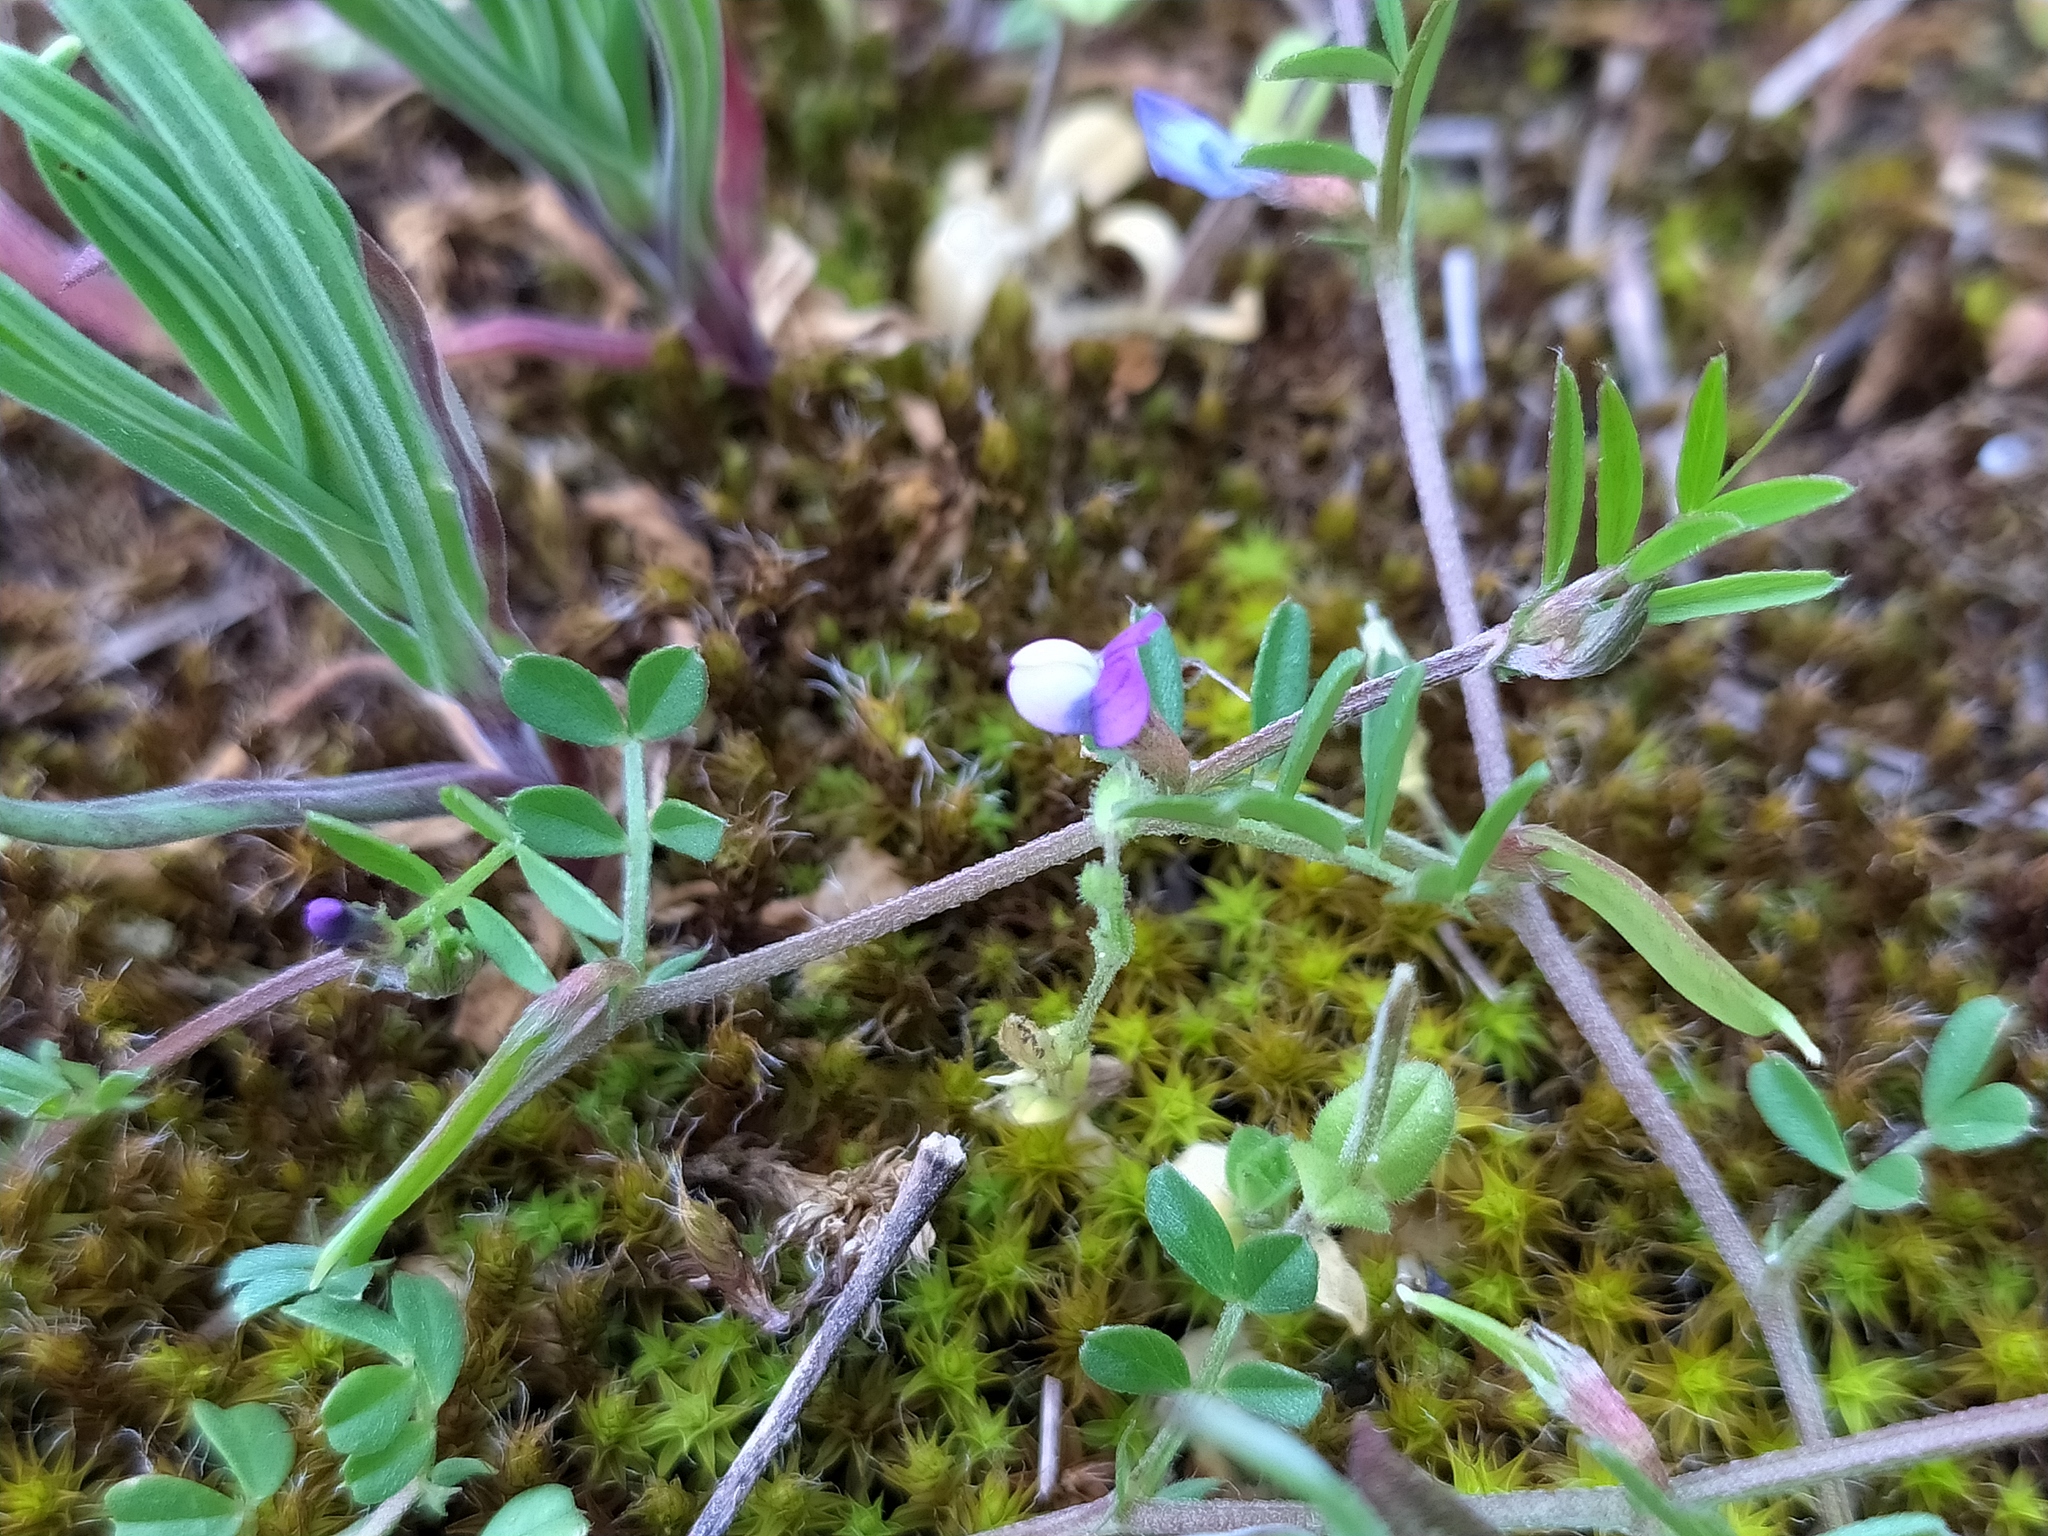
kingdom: Plantae
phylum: Tracheophyta
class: Magnoliopsida
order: Fabales
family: Fabaceae
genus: Vicia
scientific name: Vicia lathyroides
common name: Spring vetch
